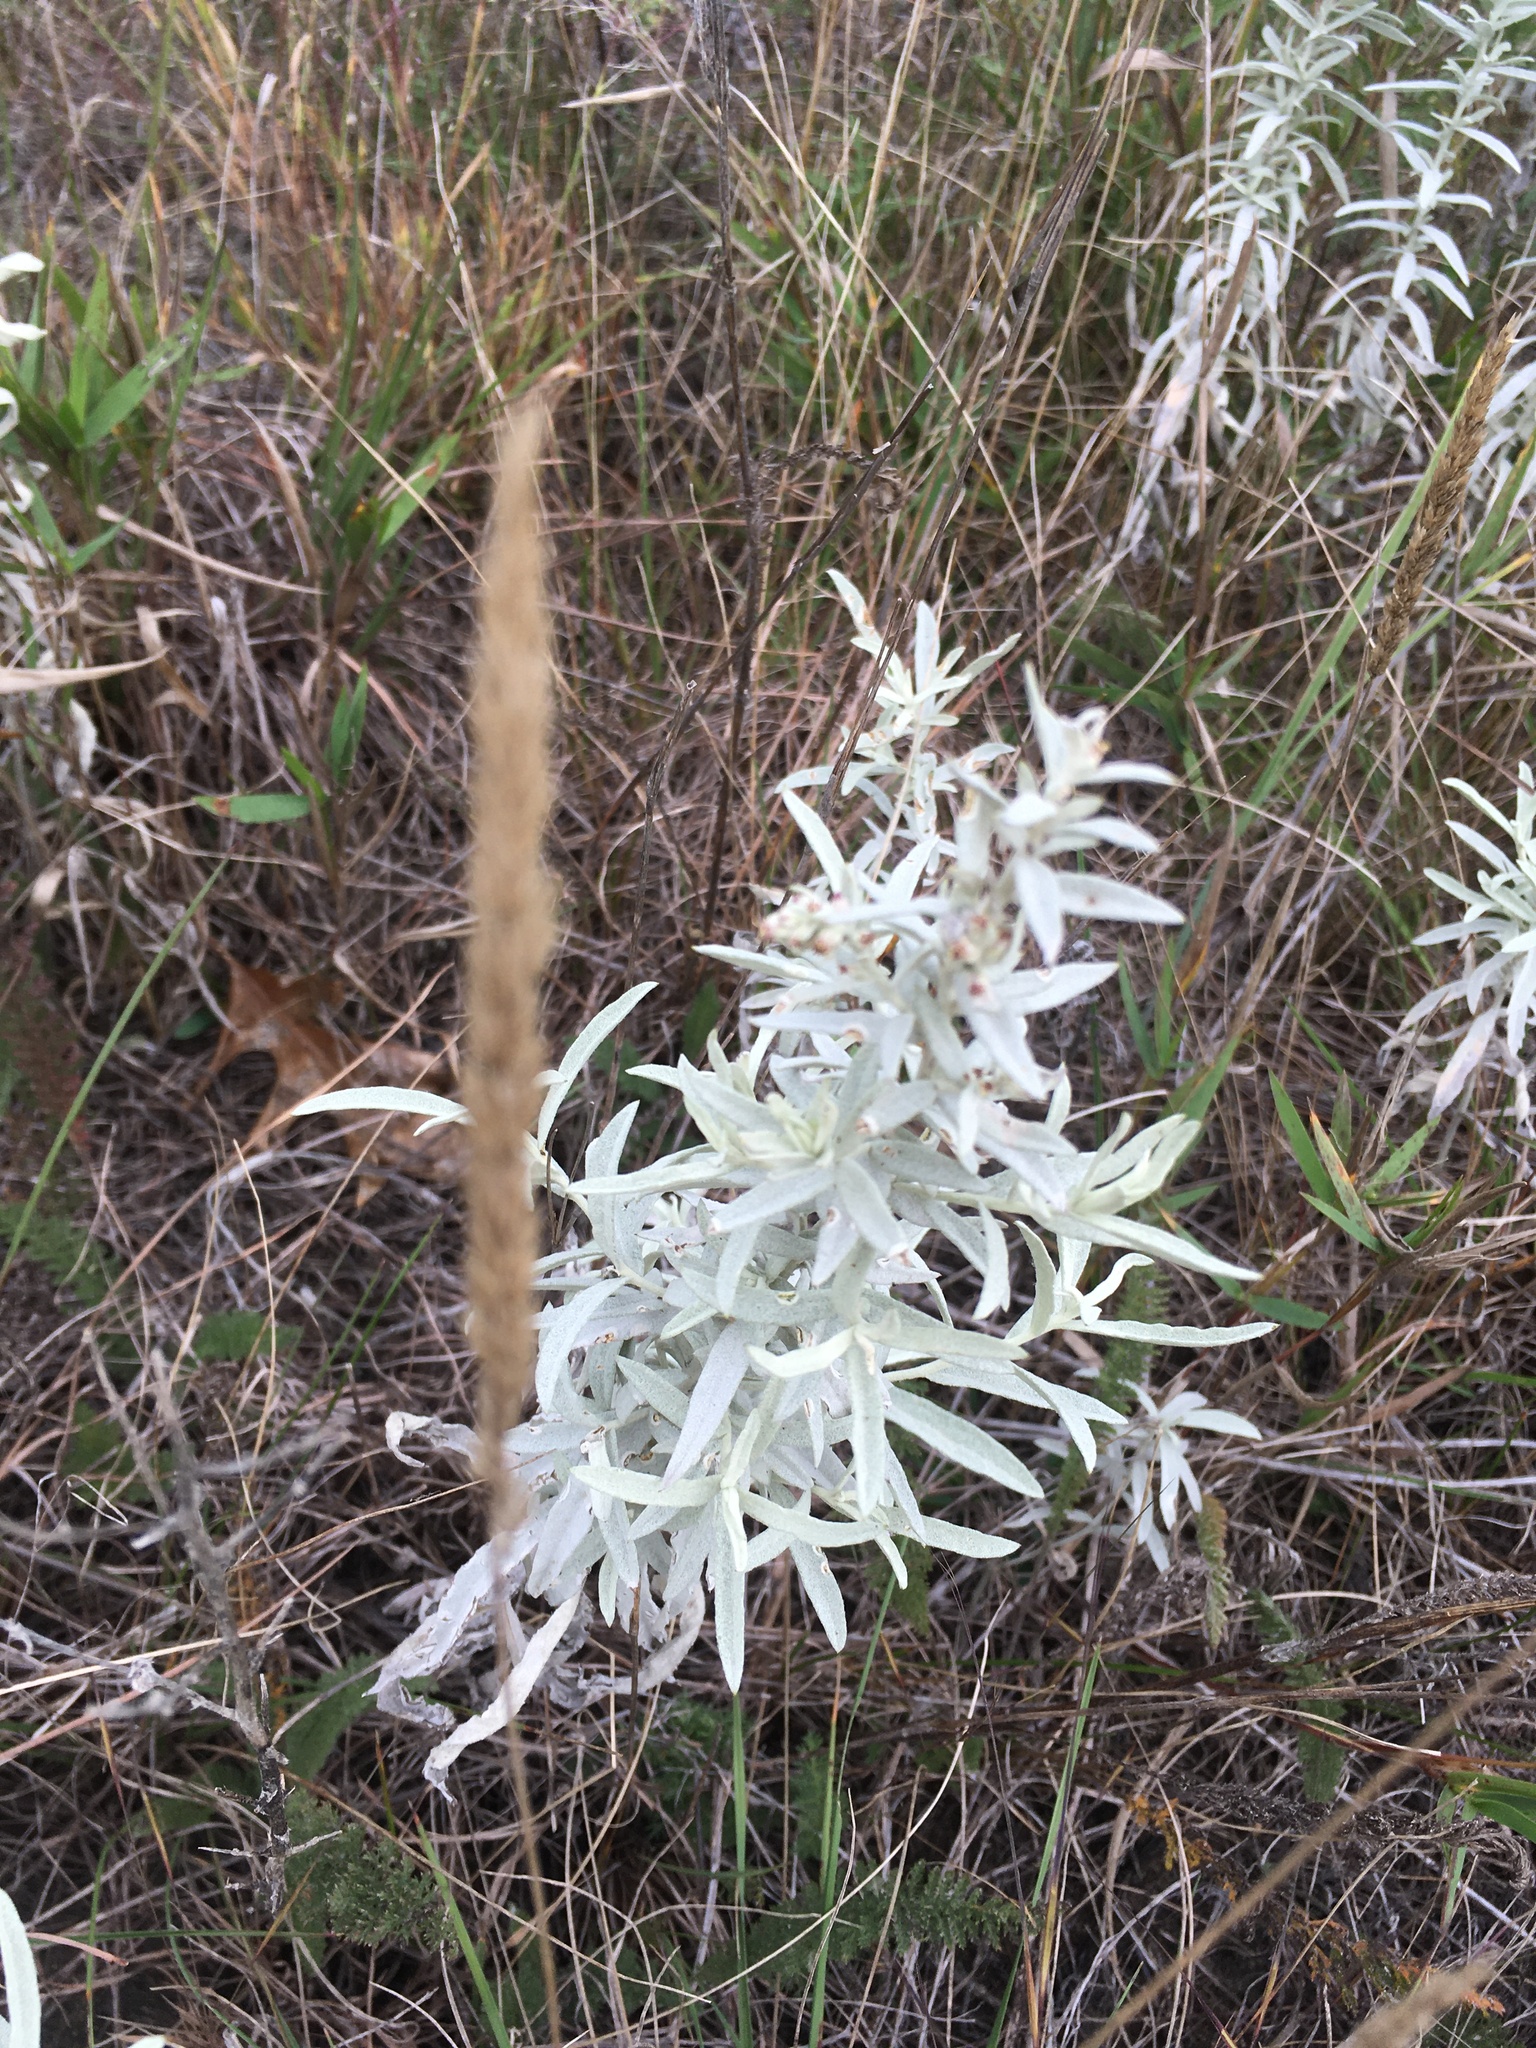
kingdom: Plantae
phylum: Tracheophyta
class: Magnoliopsida
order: Asterales
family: Asteraceae
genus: Artemisia
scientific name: Artemisia ludoviciana
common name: Western mugwort
